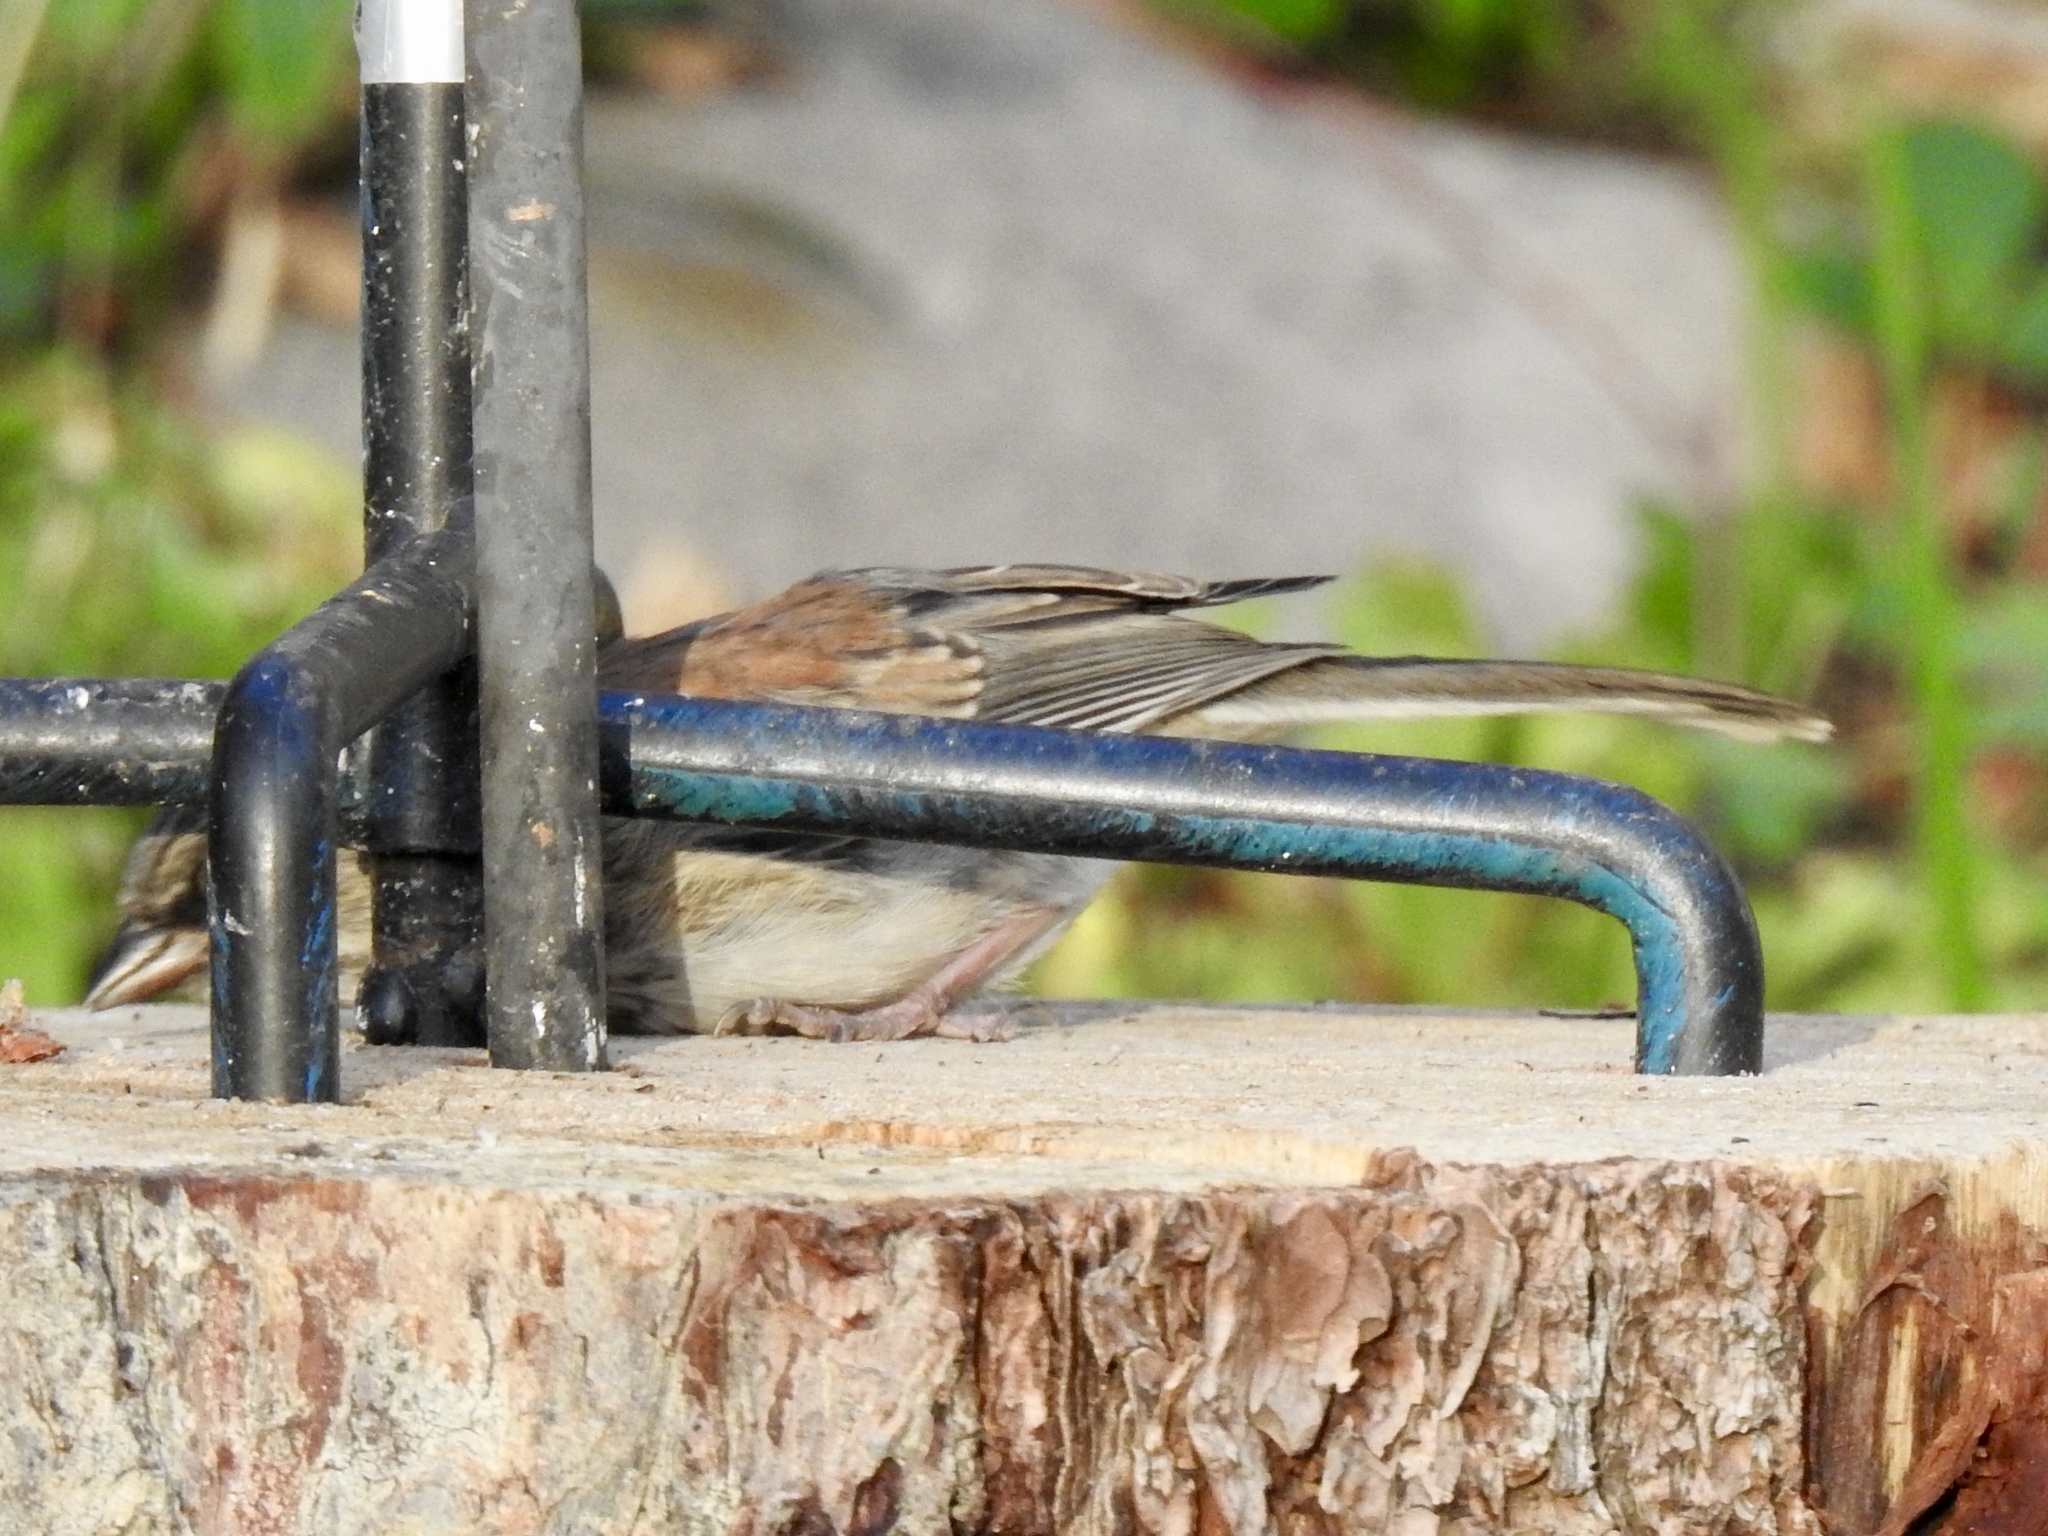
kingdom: Animalia
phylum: Chordata
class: Aves
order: Passeriformes
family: Passerellidae
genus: Junco
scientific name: Junco hyemalis
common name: Dark-eyed junco
